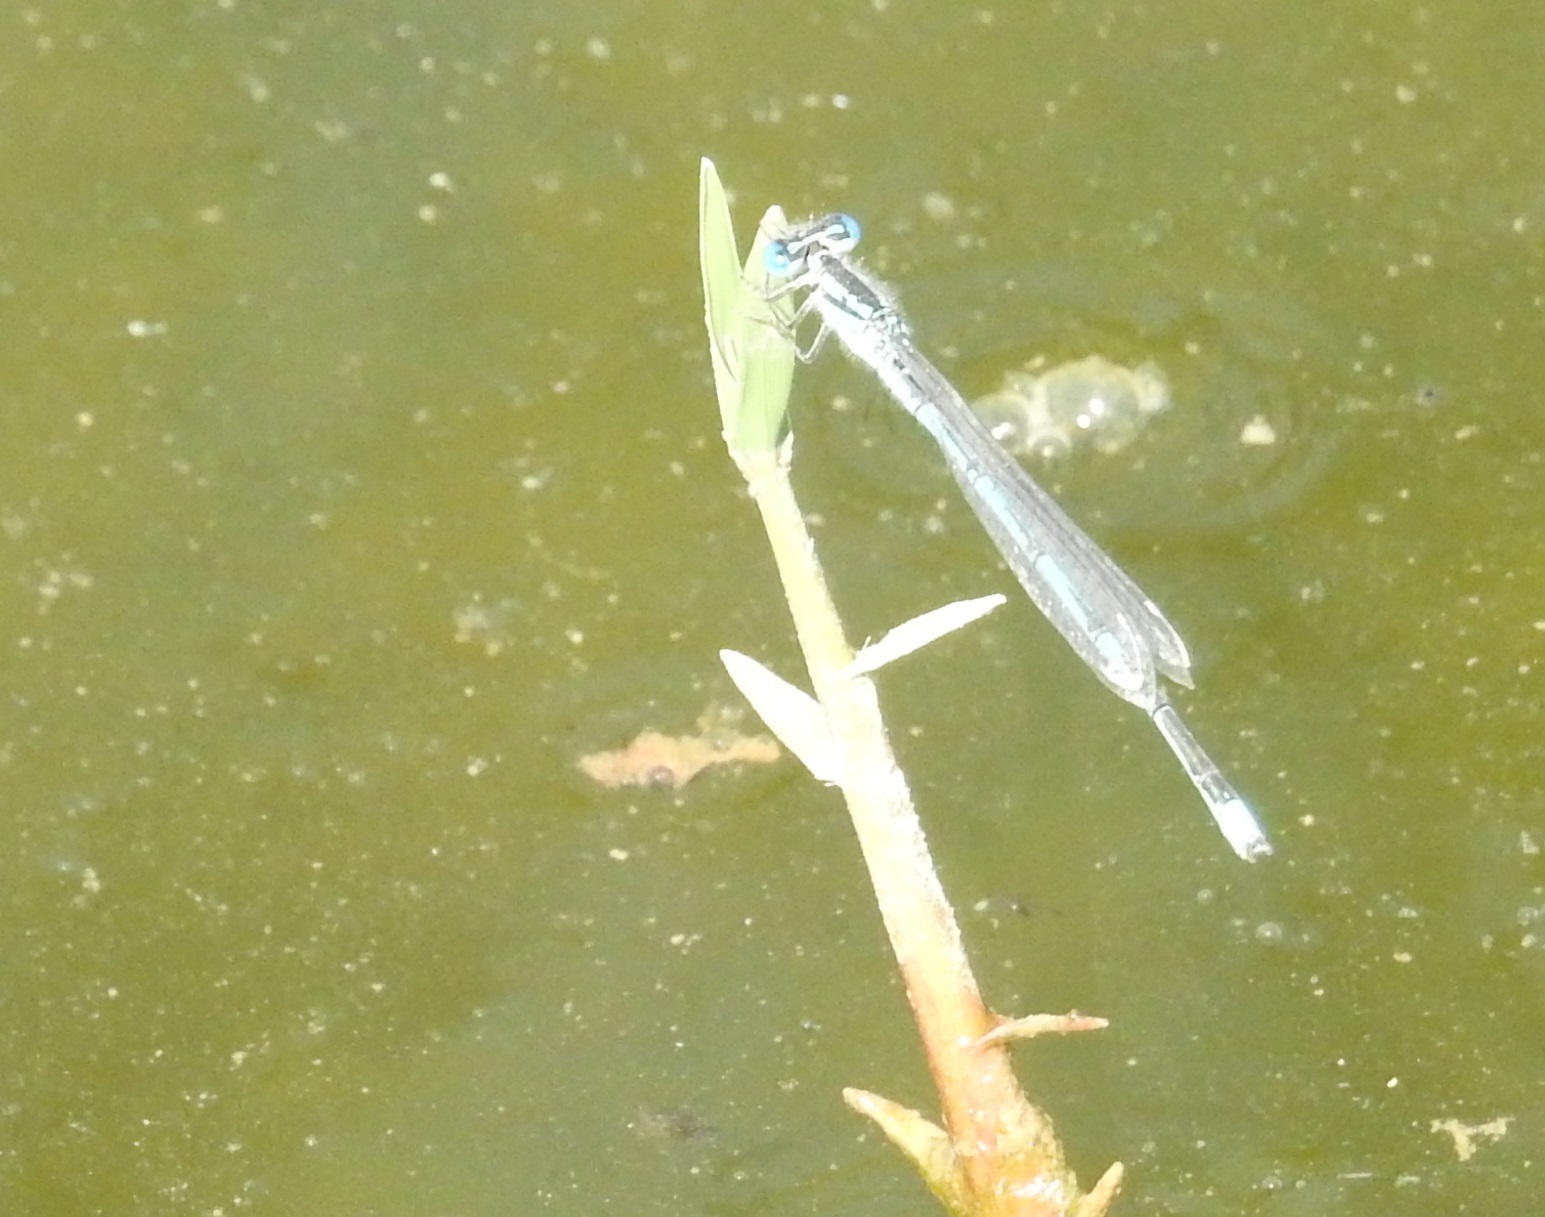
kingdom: Animalia
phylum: Arthropoda
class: Insecta
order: Odonata
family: Coenagrionidae
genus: Erythromma
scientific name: Erythromma lindenii
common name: Blue-eye
